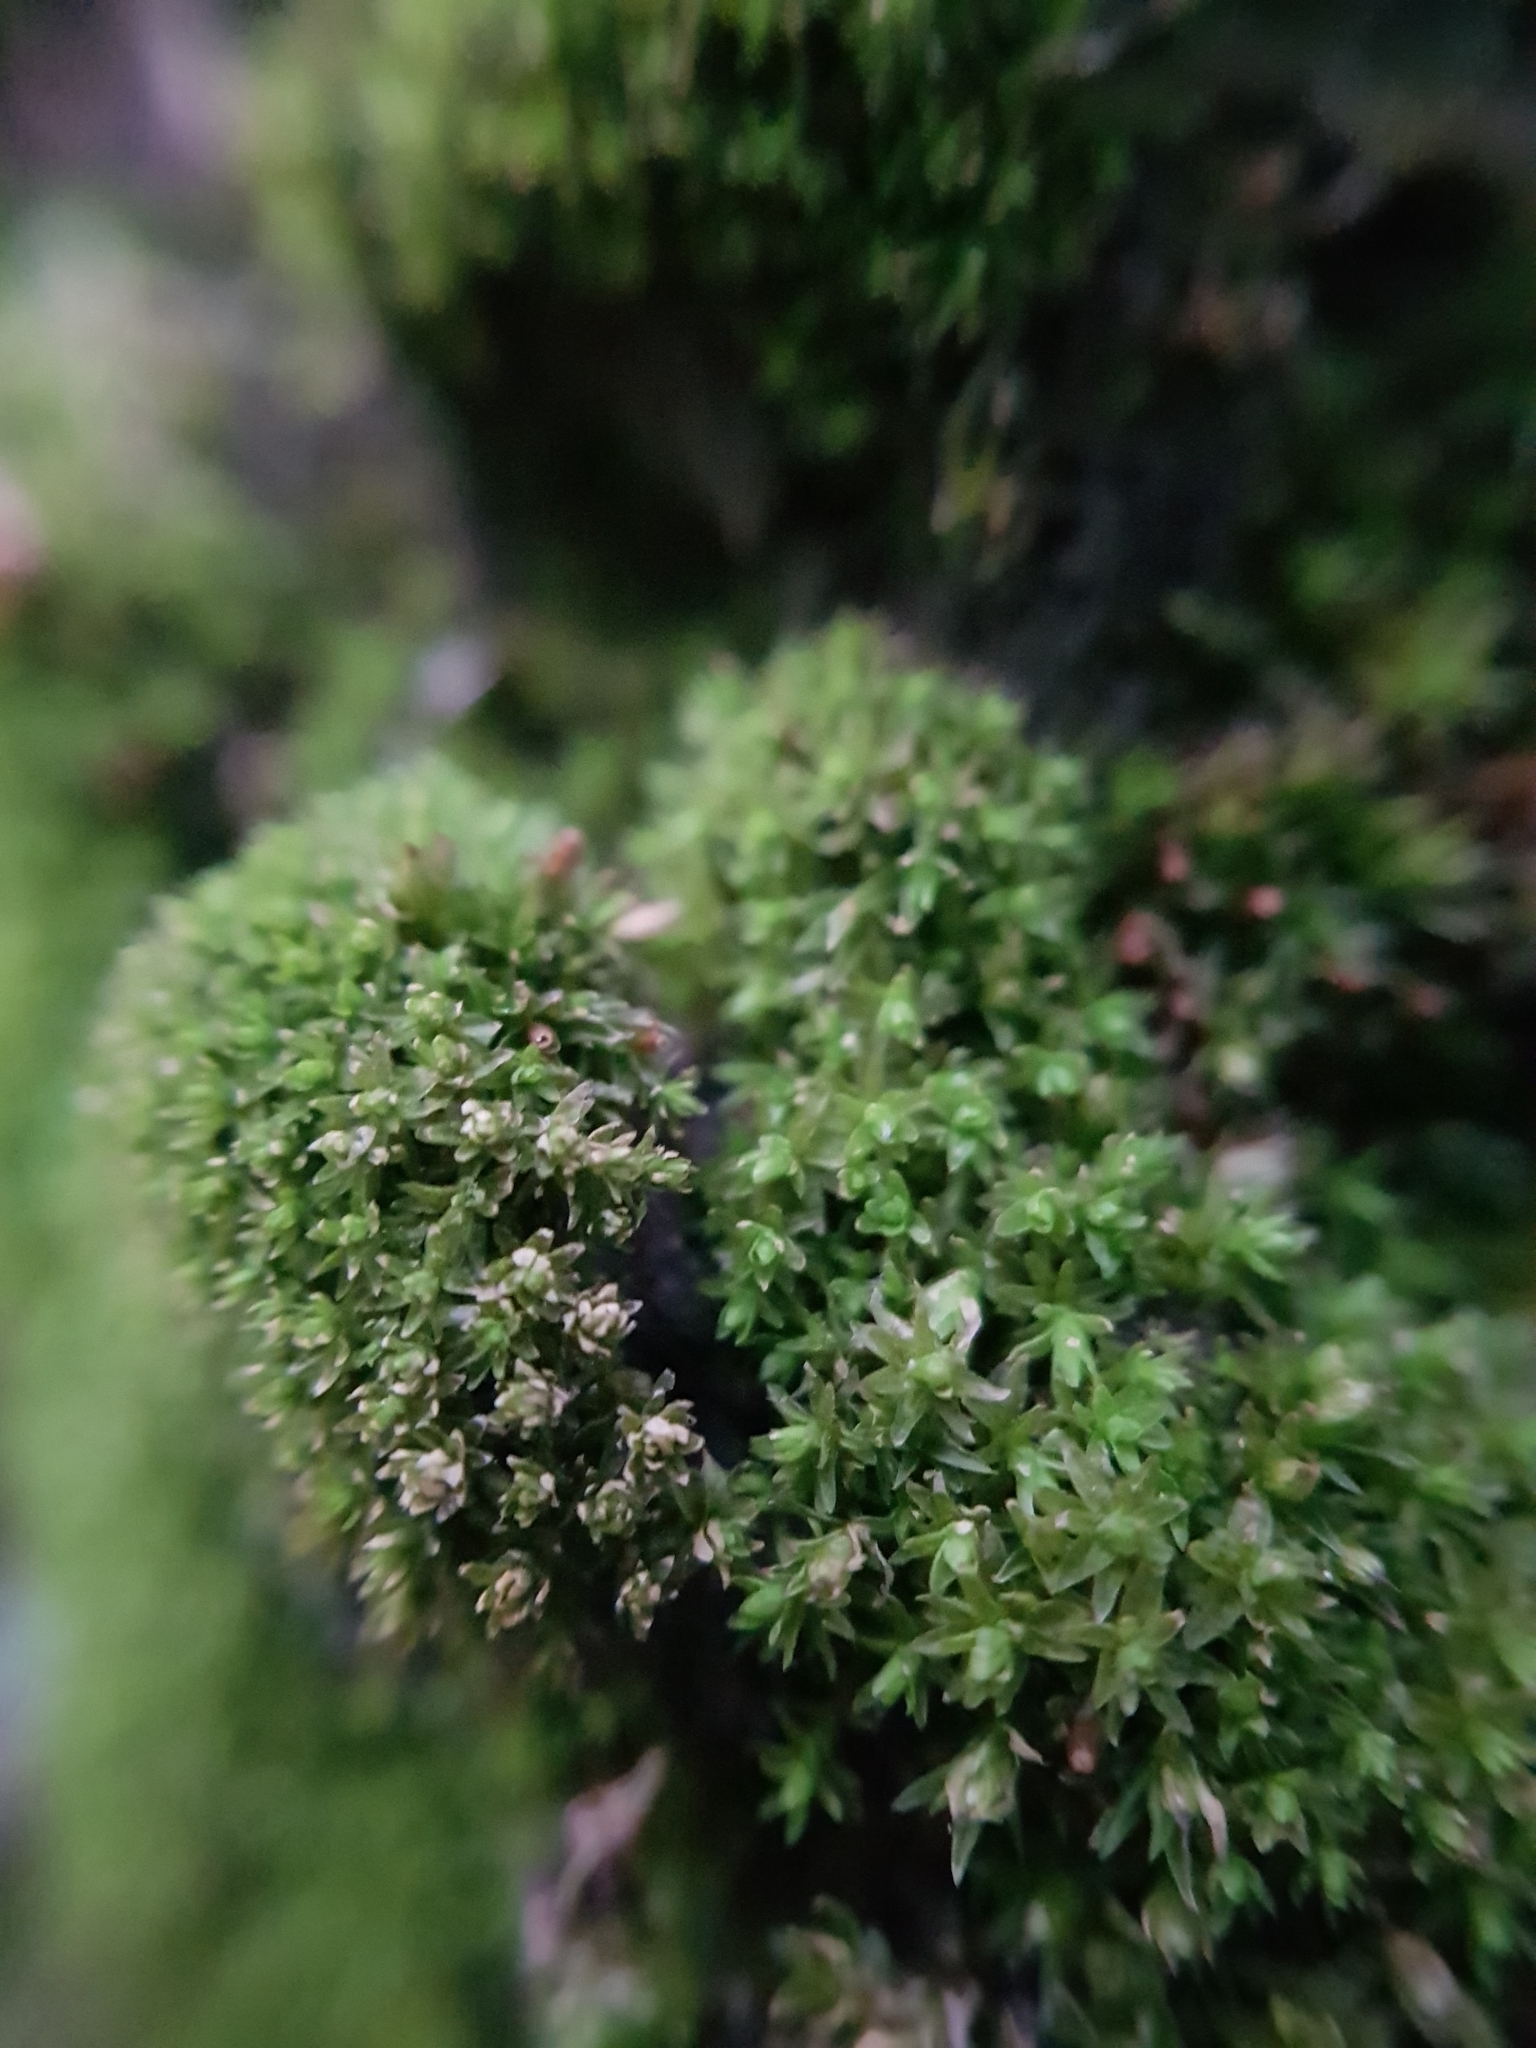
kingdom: Plantae
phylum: Bryophyta
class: Bryopsida
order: Orthotrichales
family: Orthotrichaceae
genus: Nyholmiella
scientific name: Nyholmiella obtusifolia
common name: Blunt-leaved bristle-moss
